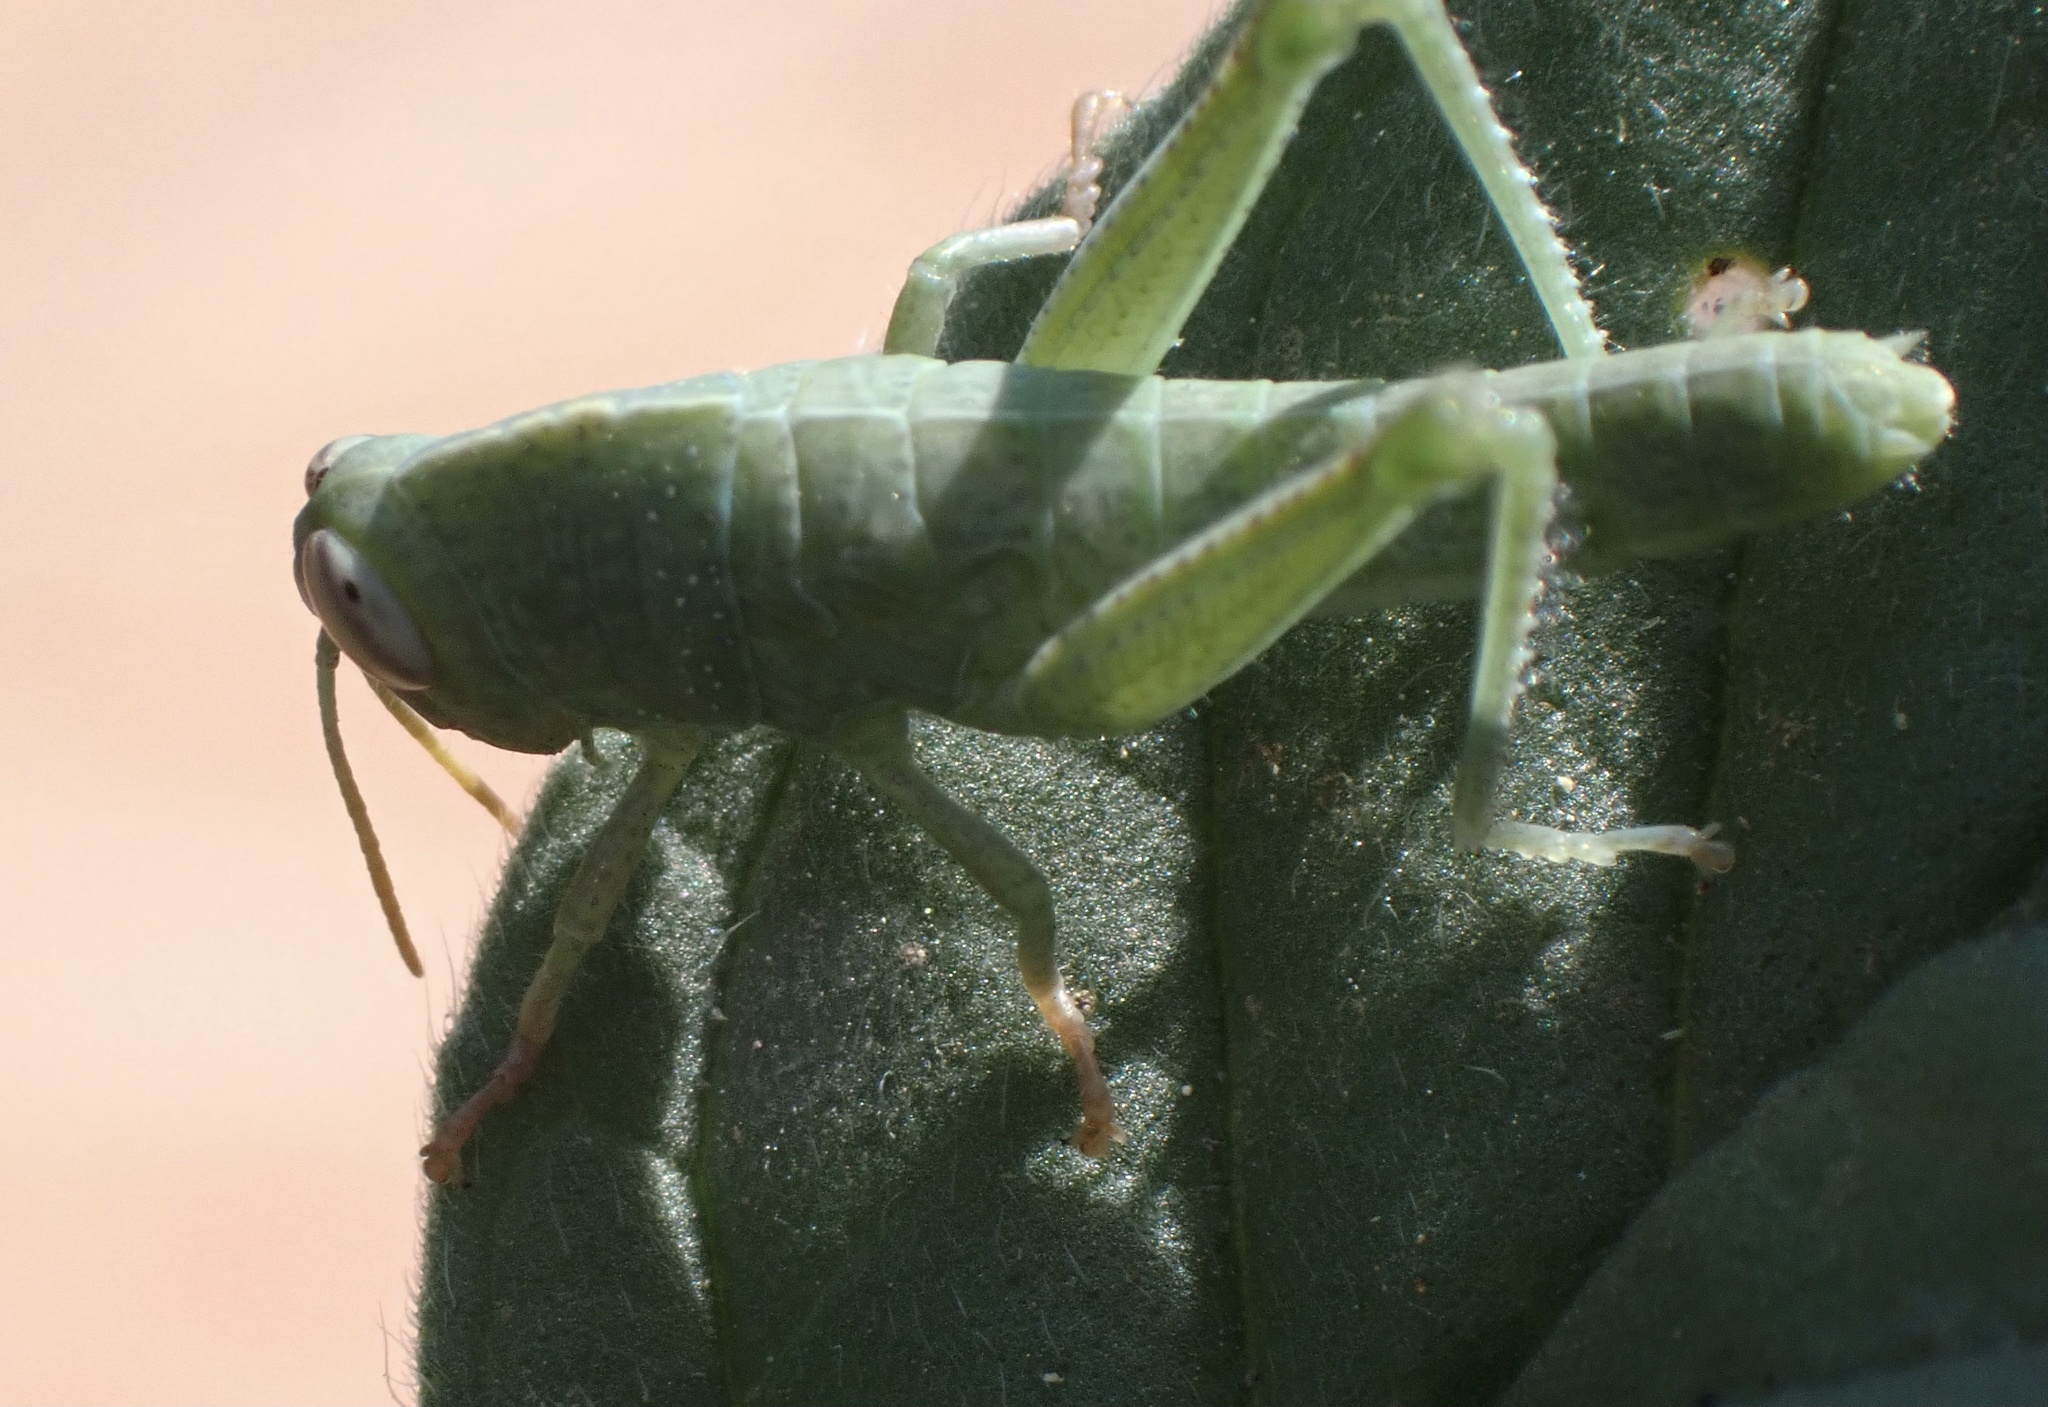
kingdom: Animalia
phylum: Arthropoda
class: Insecta
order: Orthoptera
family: Acrididae
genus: Anacridium
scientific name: Anacridium aegyptium
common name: Egyptian grasshopper
